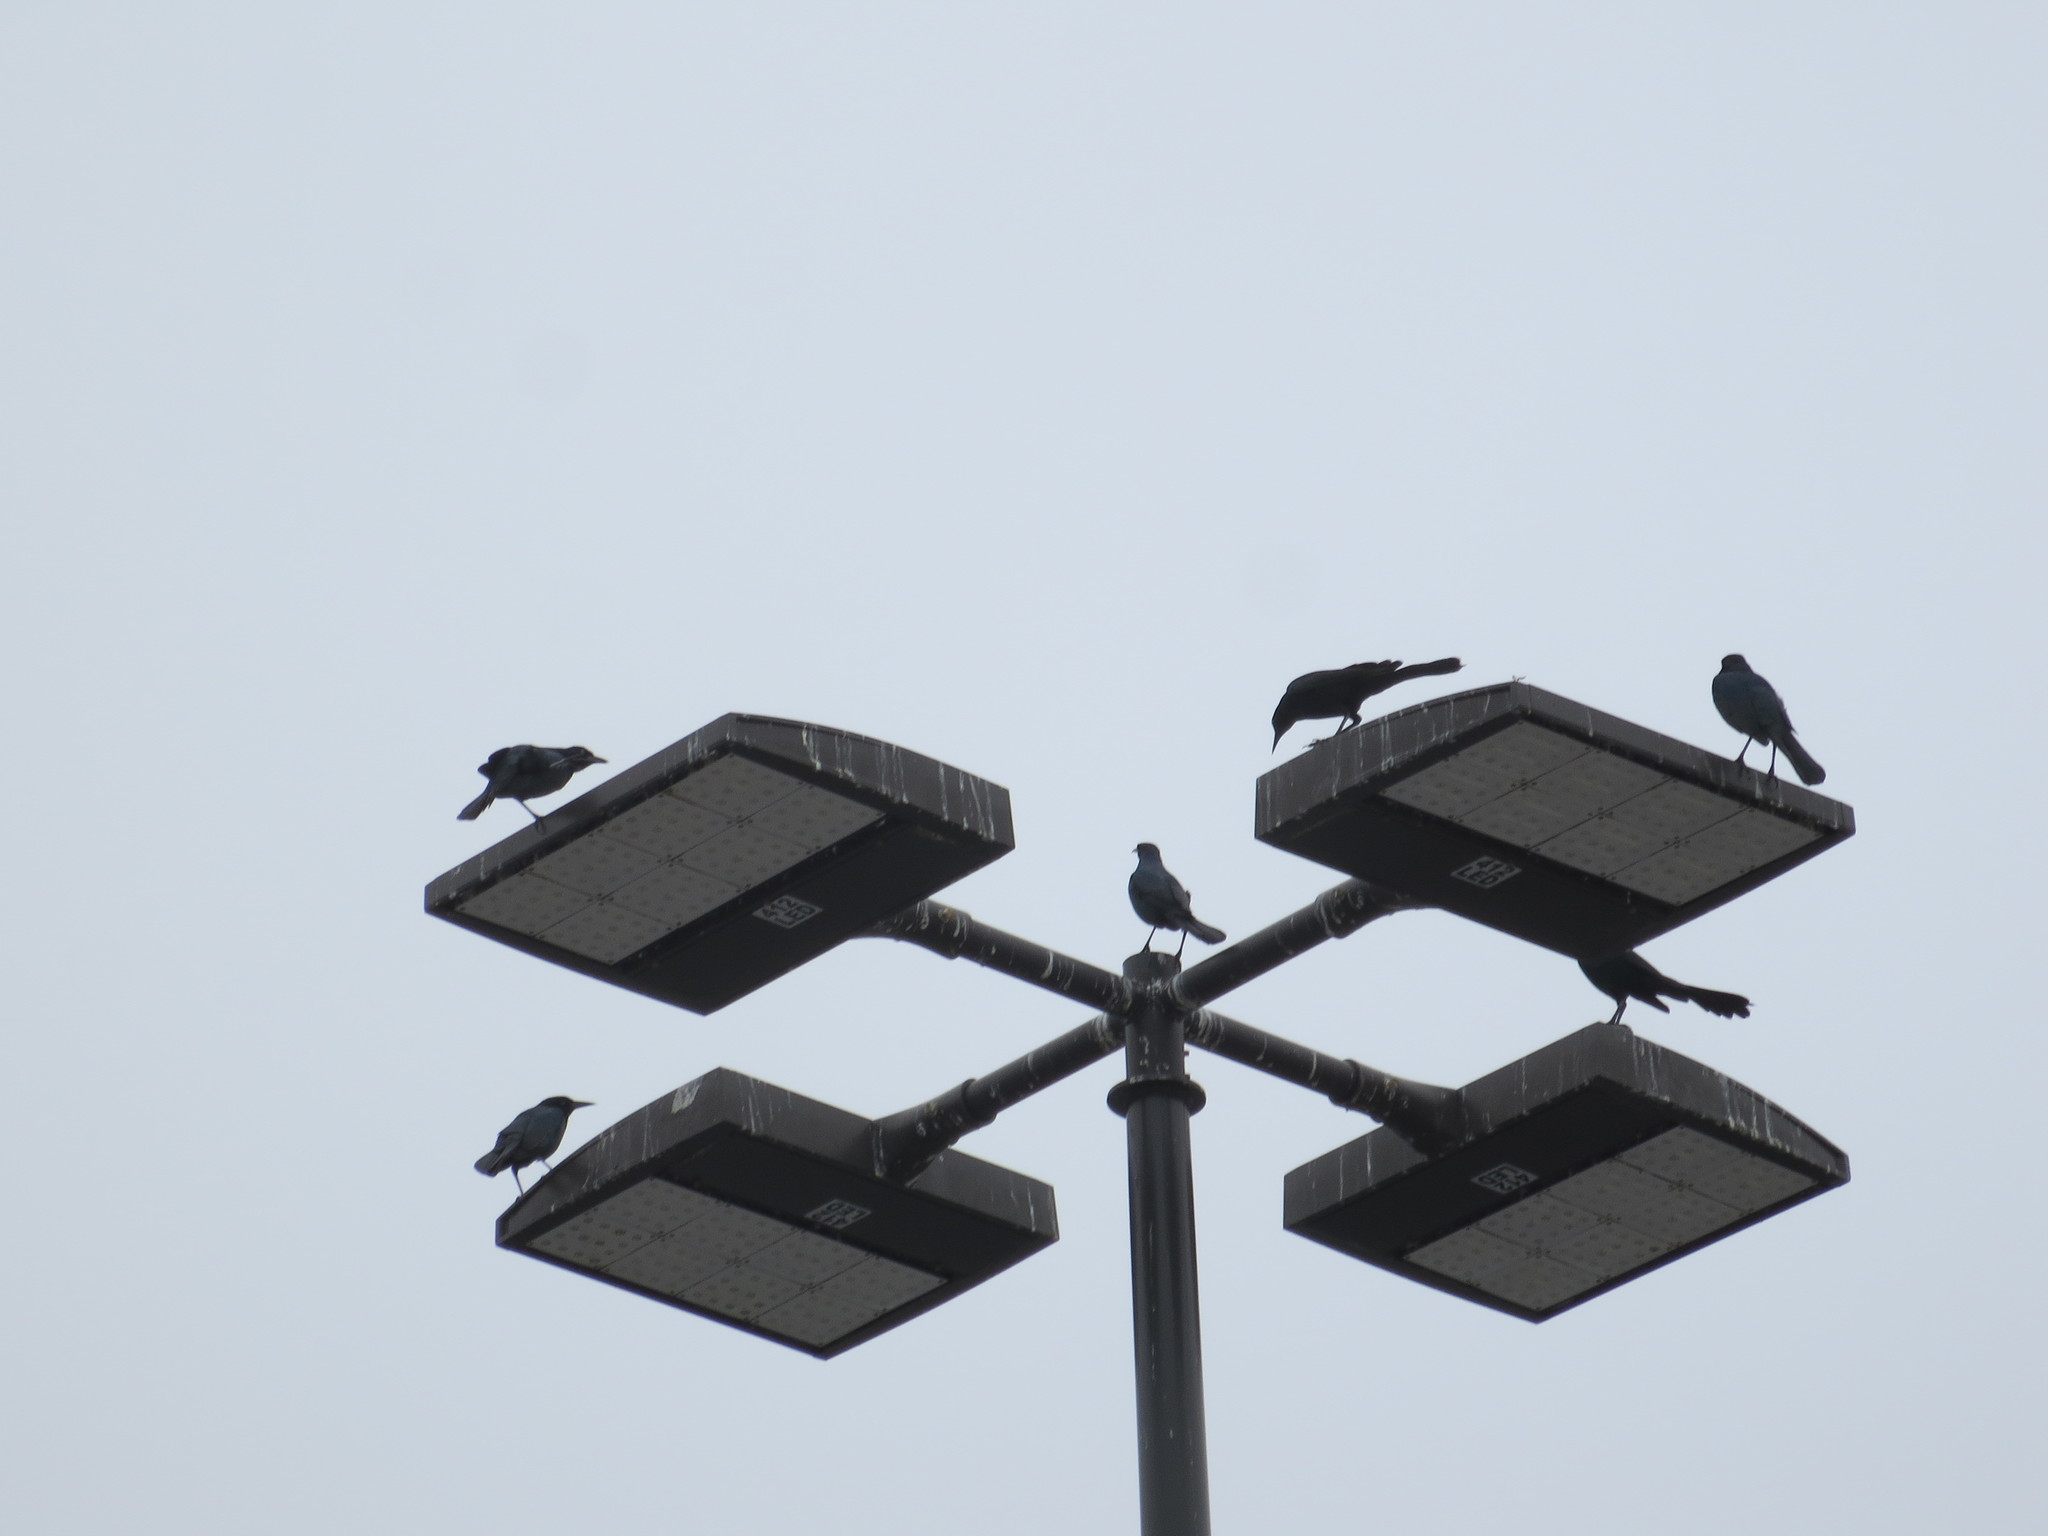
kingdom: Animalia
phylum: Chordata
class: Aves
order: Passeriformes
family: Icteridae
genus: Quiscalus
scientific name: Quiscalus major
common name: Boat-tailed grackle
